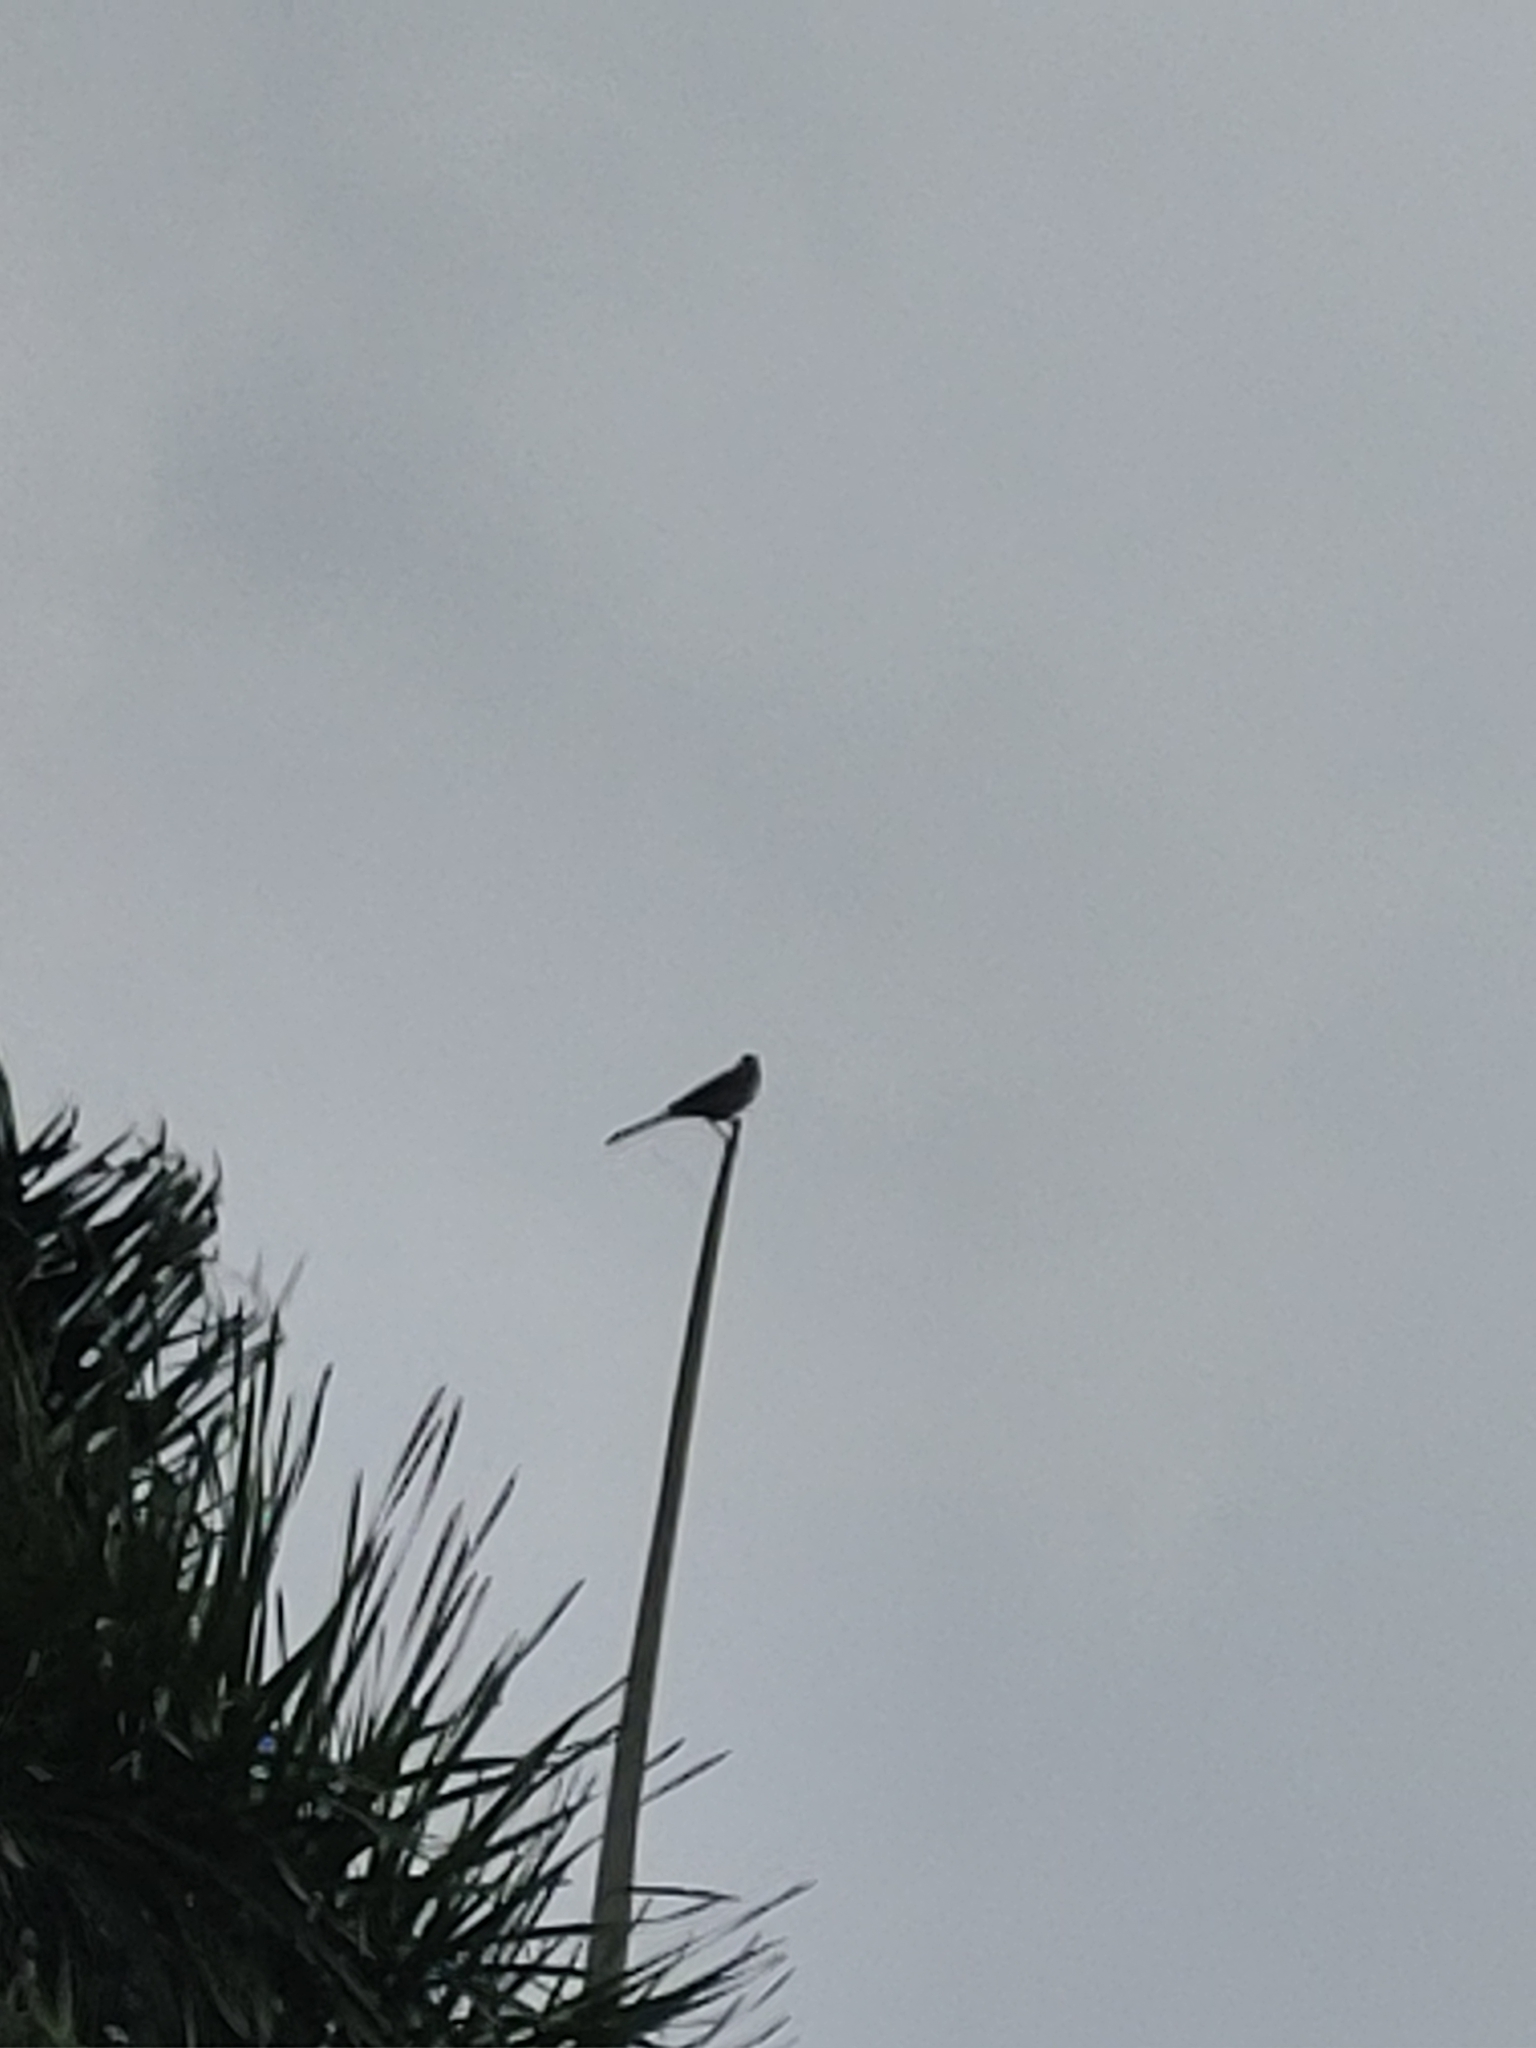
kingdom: Animalia
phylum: Chordata
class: Aves
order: Passeriformes
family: Mimidae
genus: Mimus
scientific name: Mimus polyglottos
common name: Northern mockingbird
